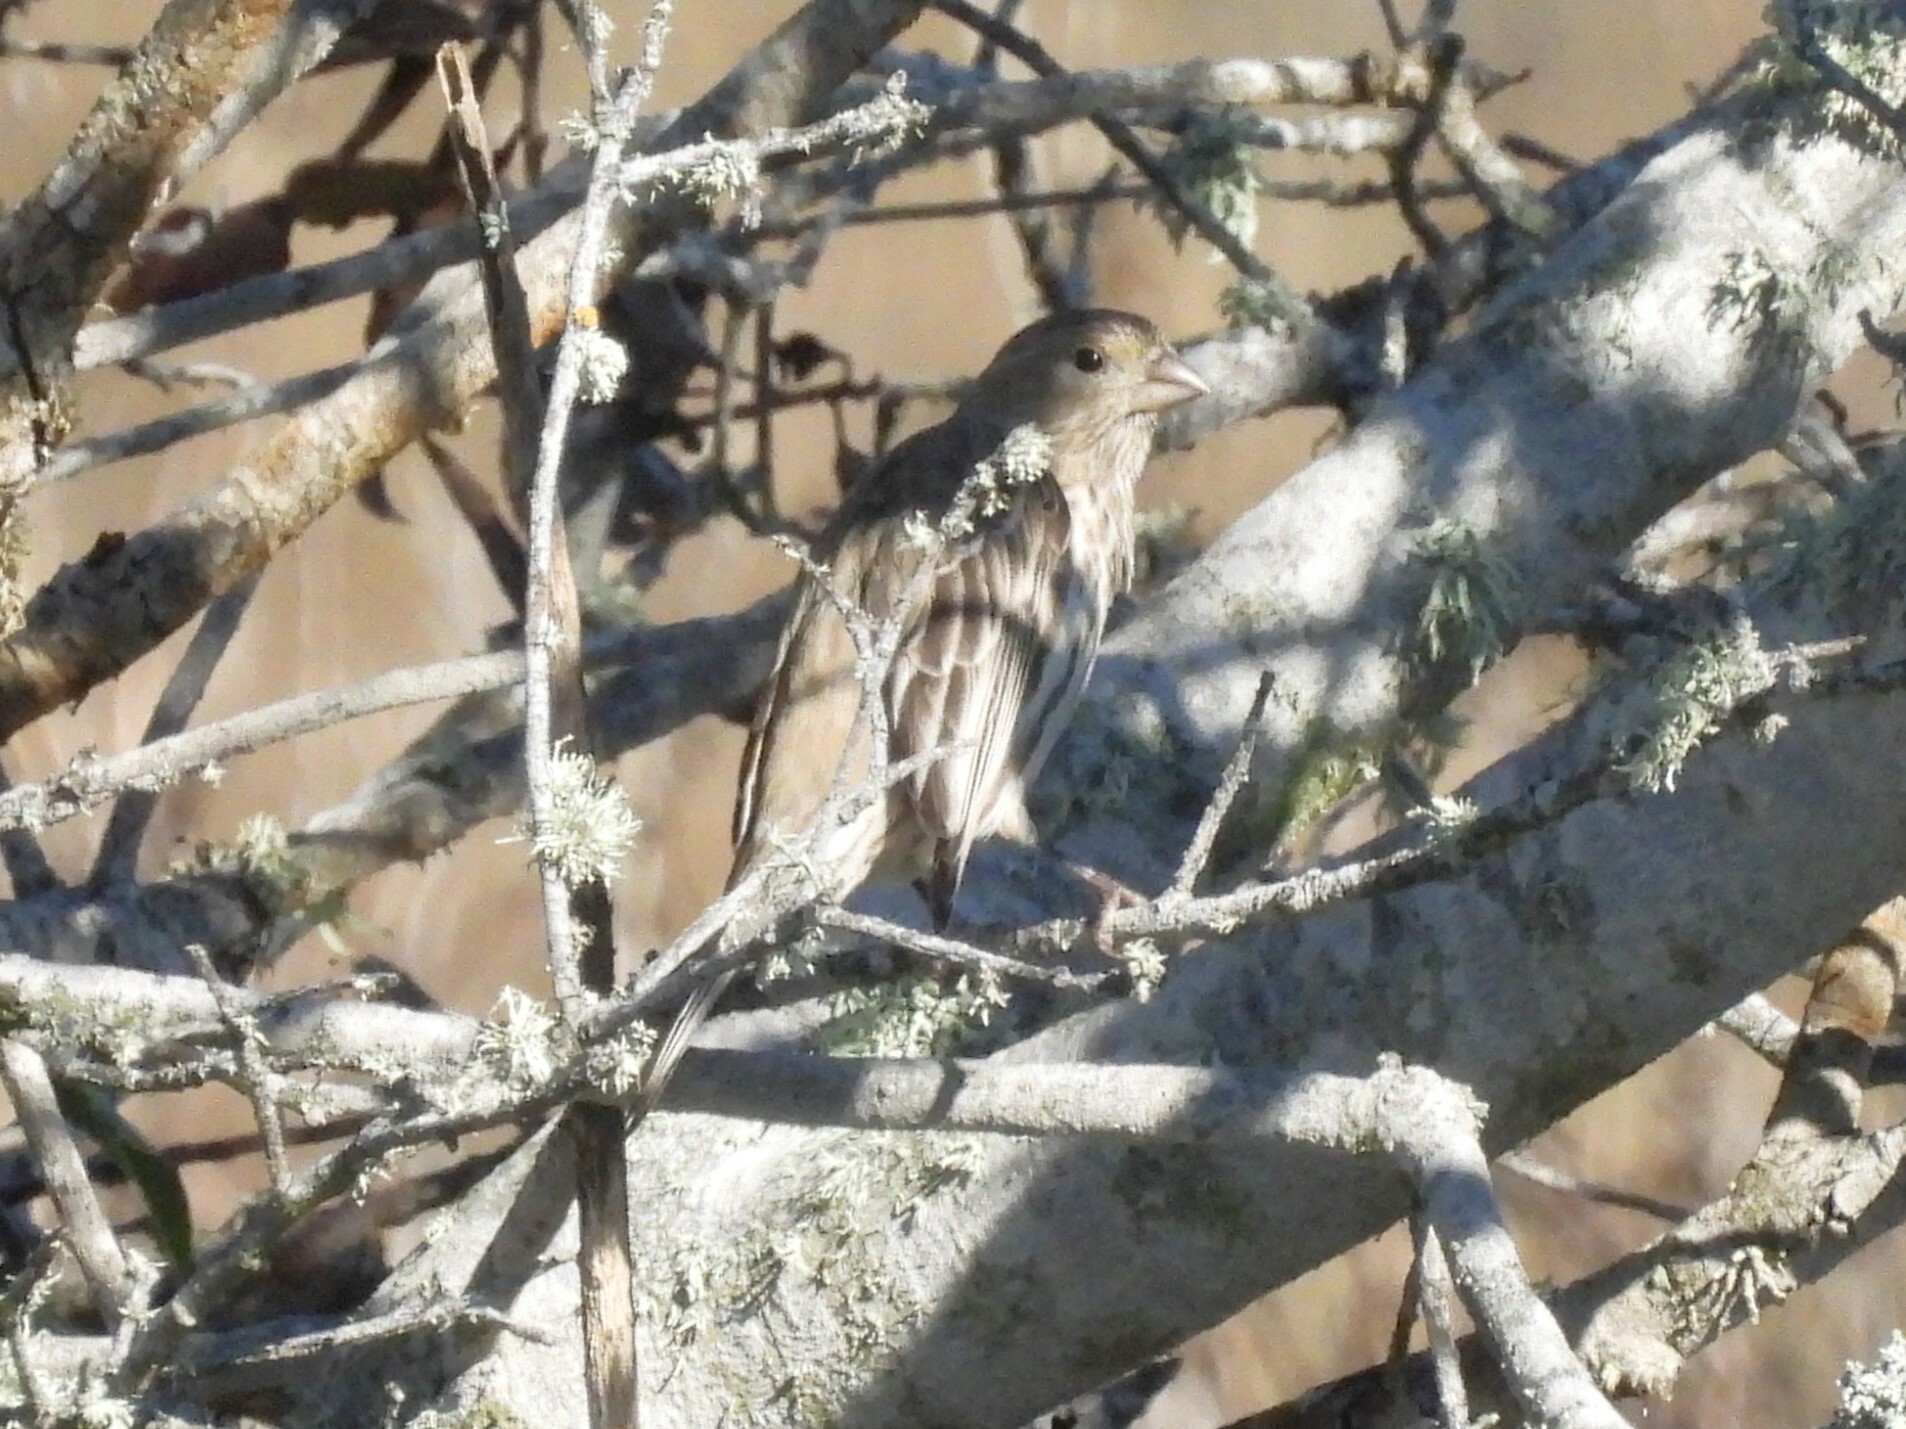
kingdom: Animalia
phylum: Chordata
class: Aves
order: Passeriformes
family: Fringillidae
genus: Haemorhous
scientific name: Haemorhous mexicanus
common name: House finch
